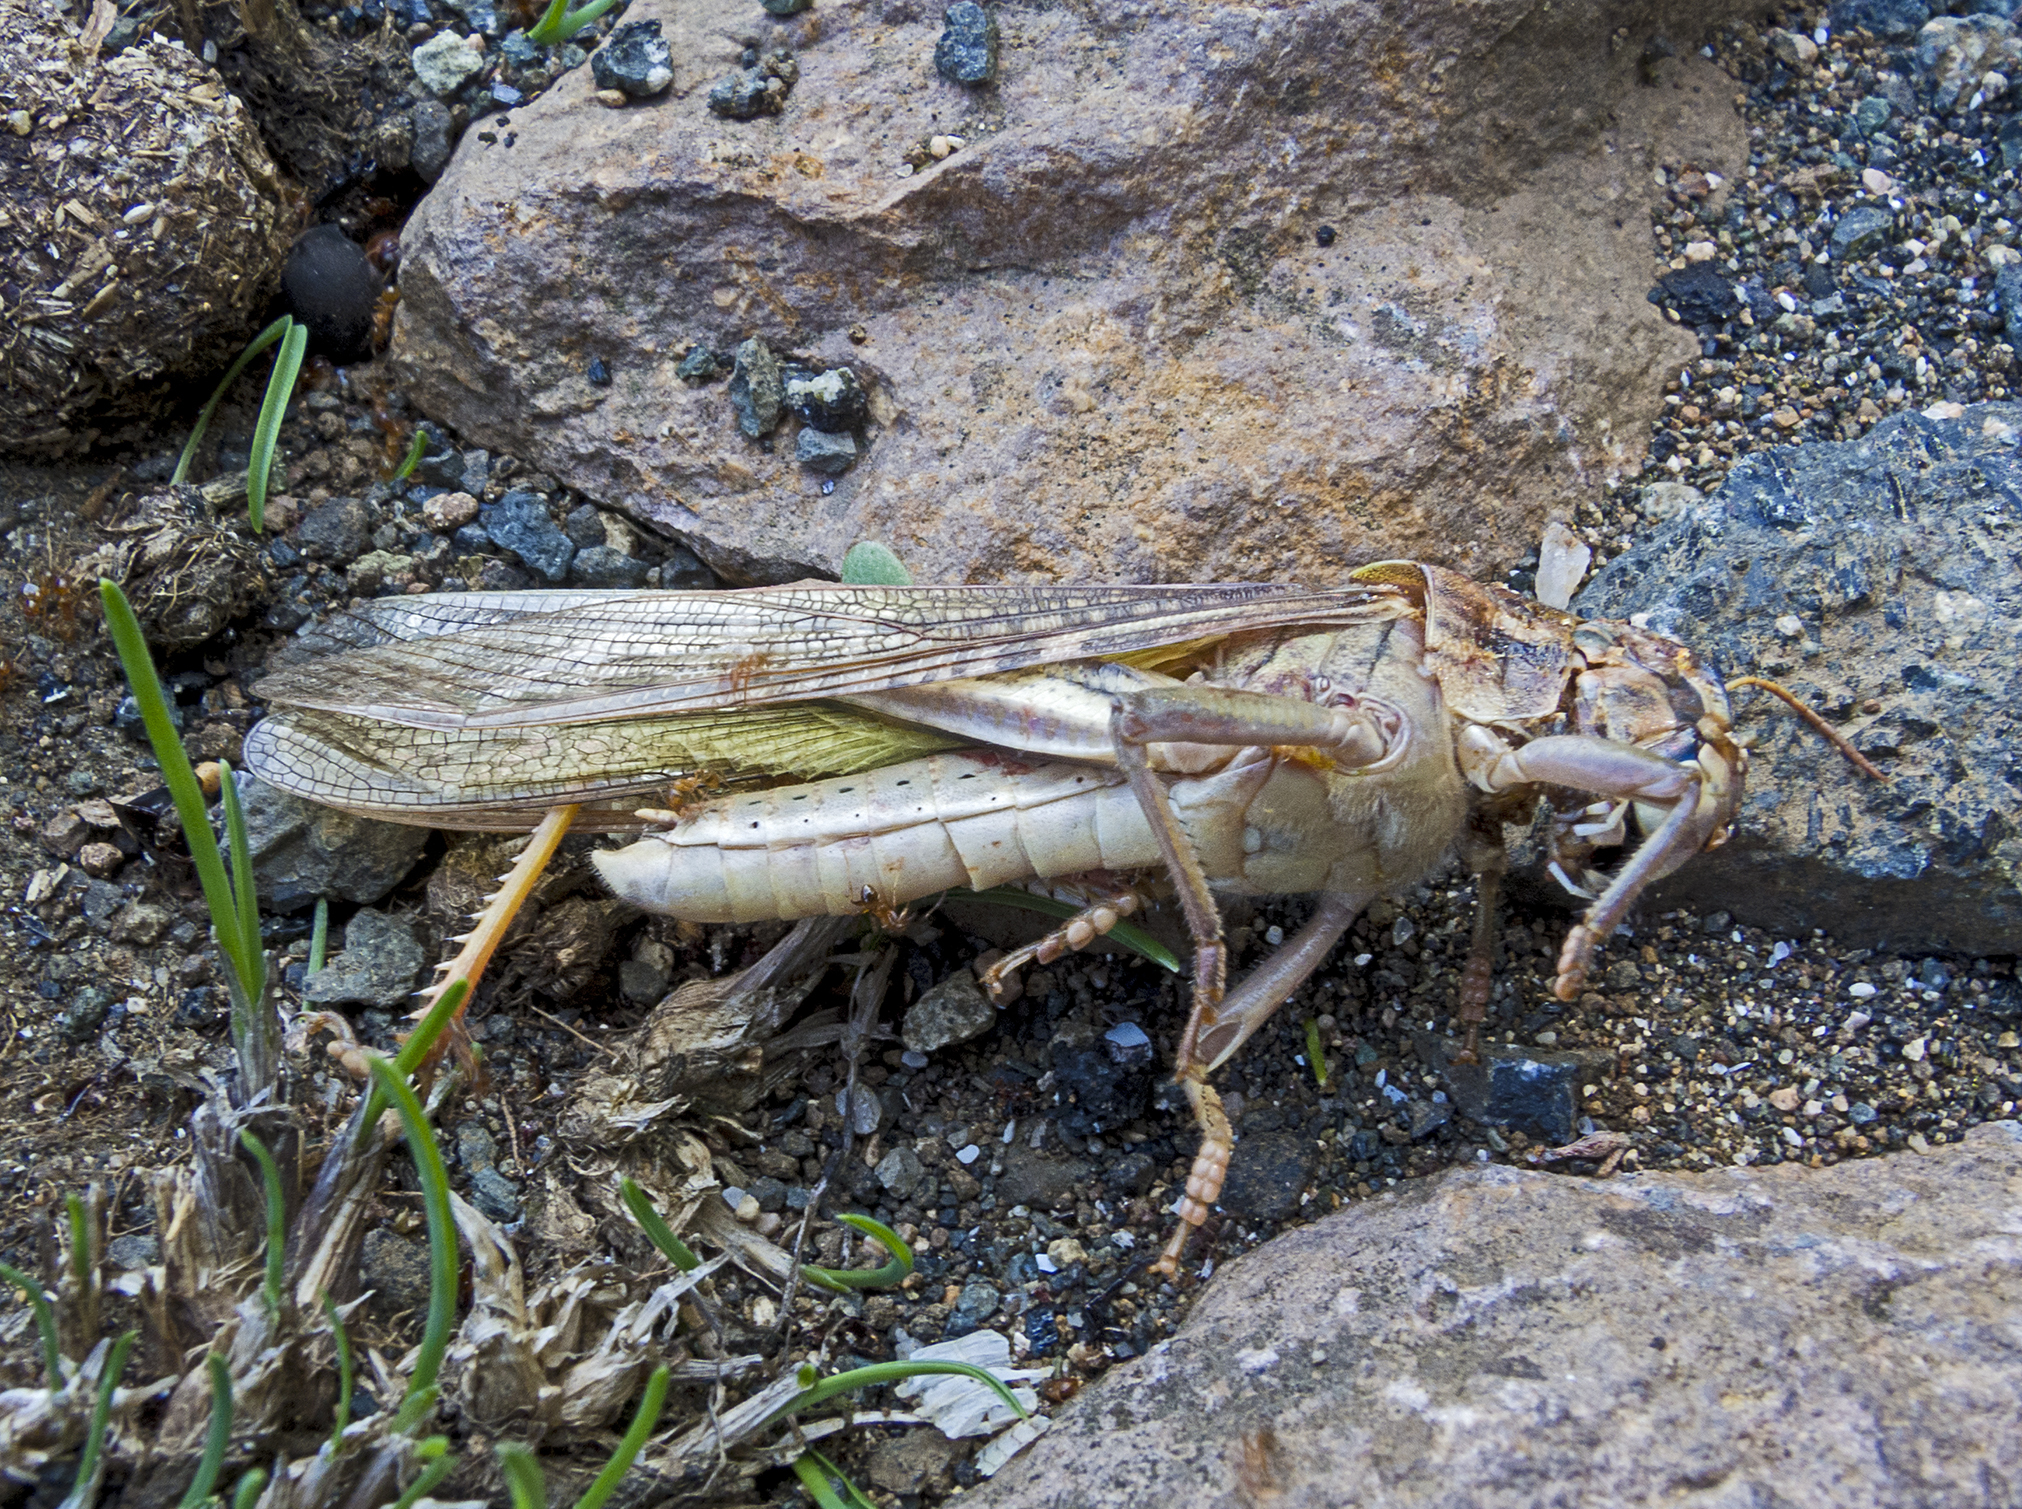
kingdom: Animalia
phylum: Arthropoda
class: Insecta
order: Orthoptera
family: Acrididae
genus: Locusta
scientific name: Locusta migratoria
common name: Migratory locust
